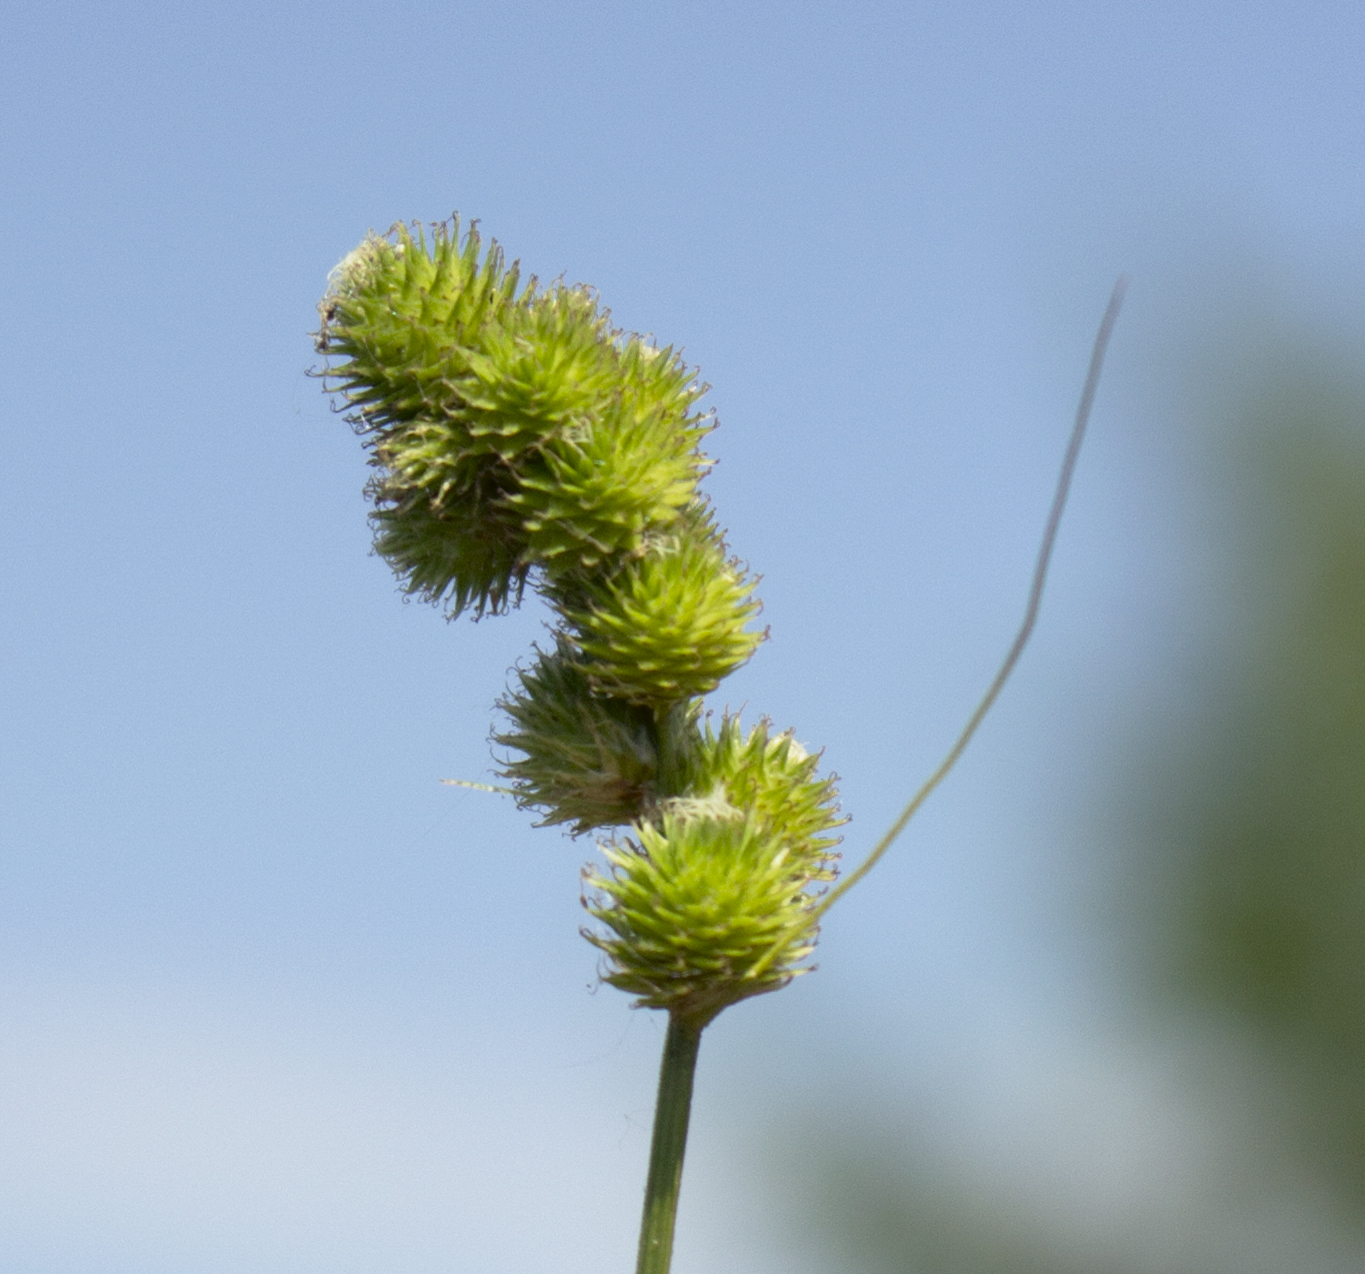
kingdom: Plantae
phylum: Tracheophyta
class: Liliopsida
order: Poales
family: Cyperaceae
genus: Carex
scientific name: Carex cristatella
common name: Crested oval sedge
